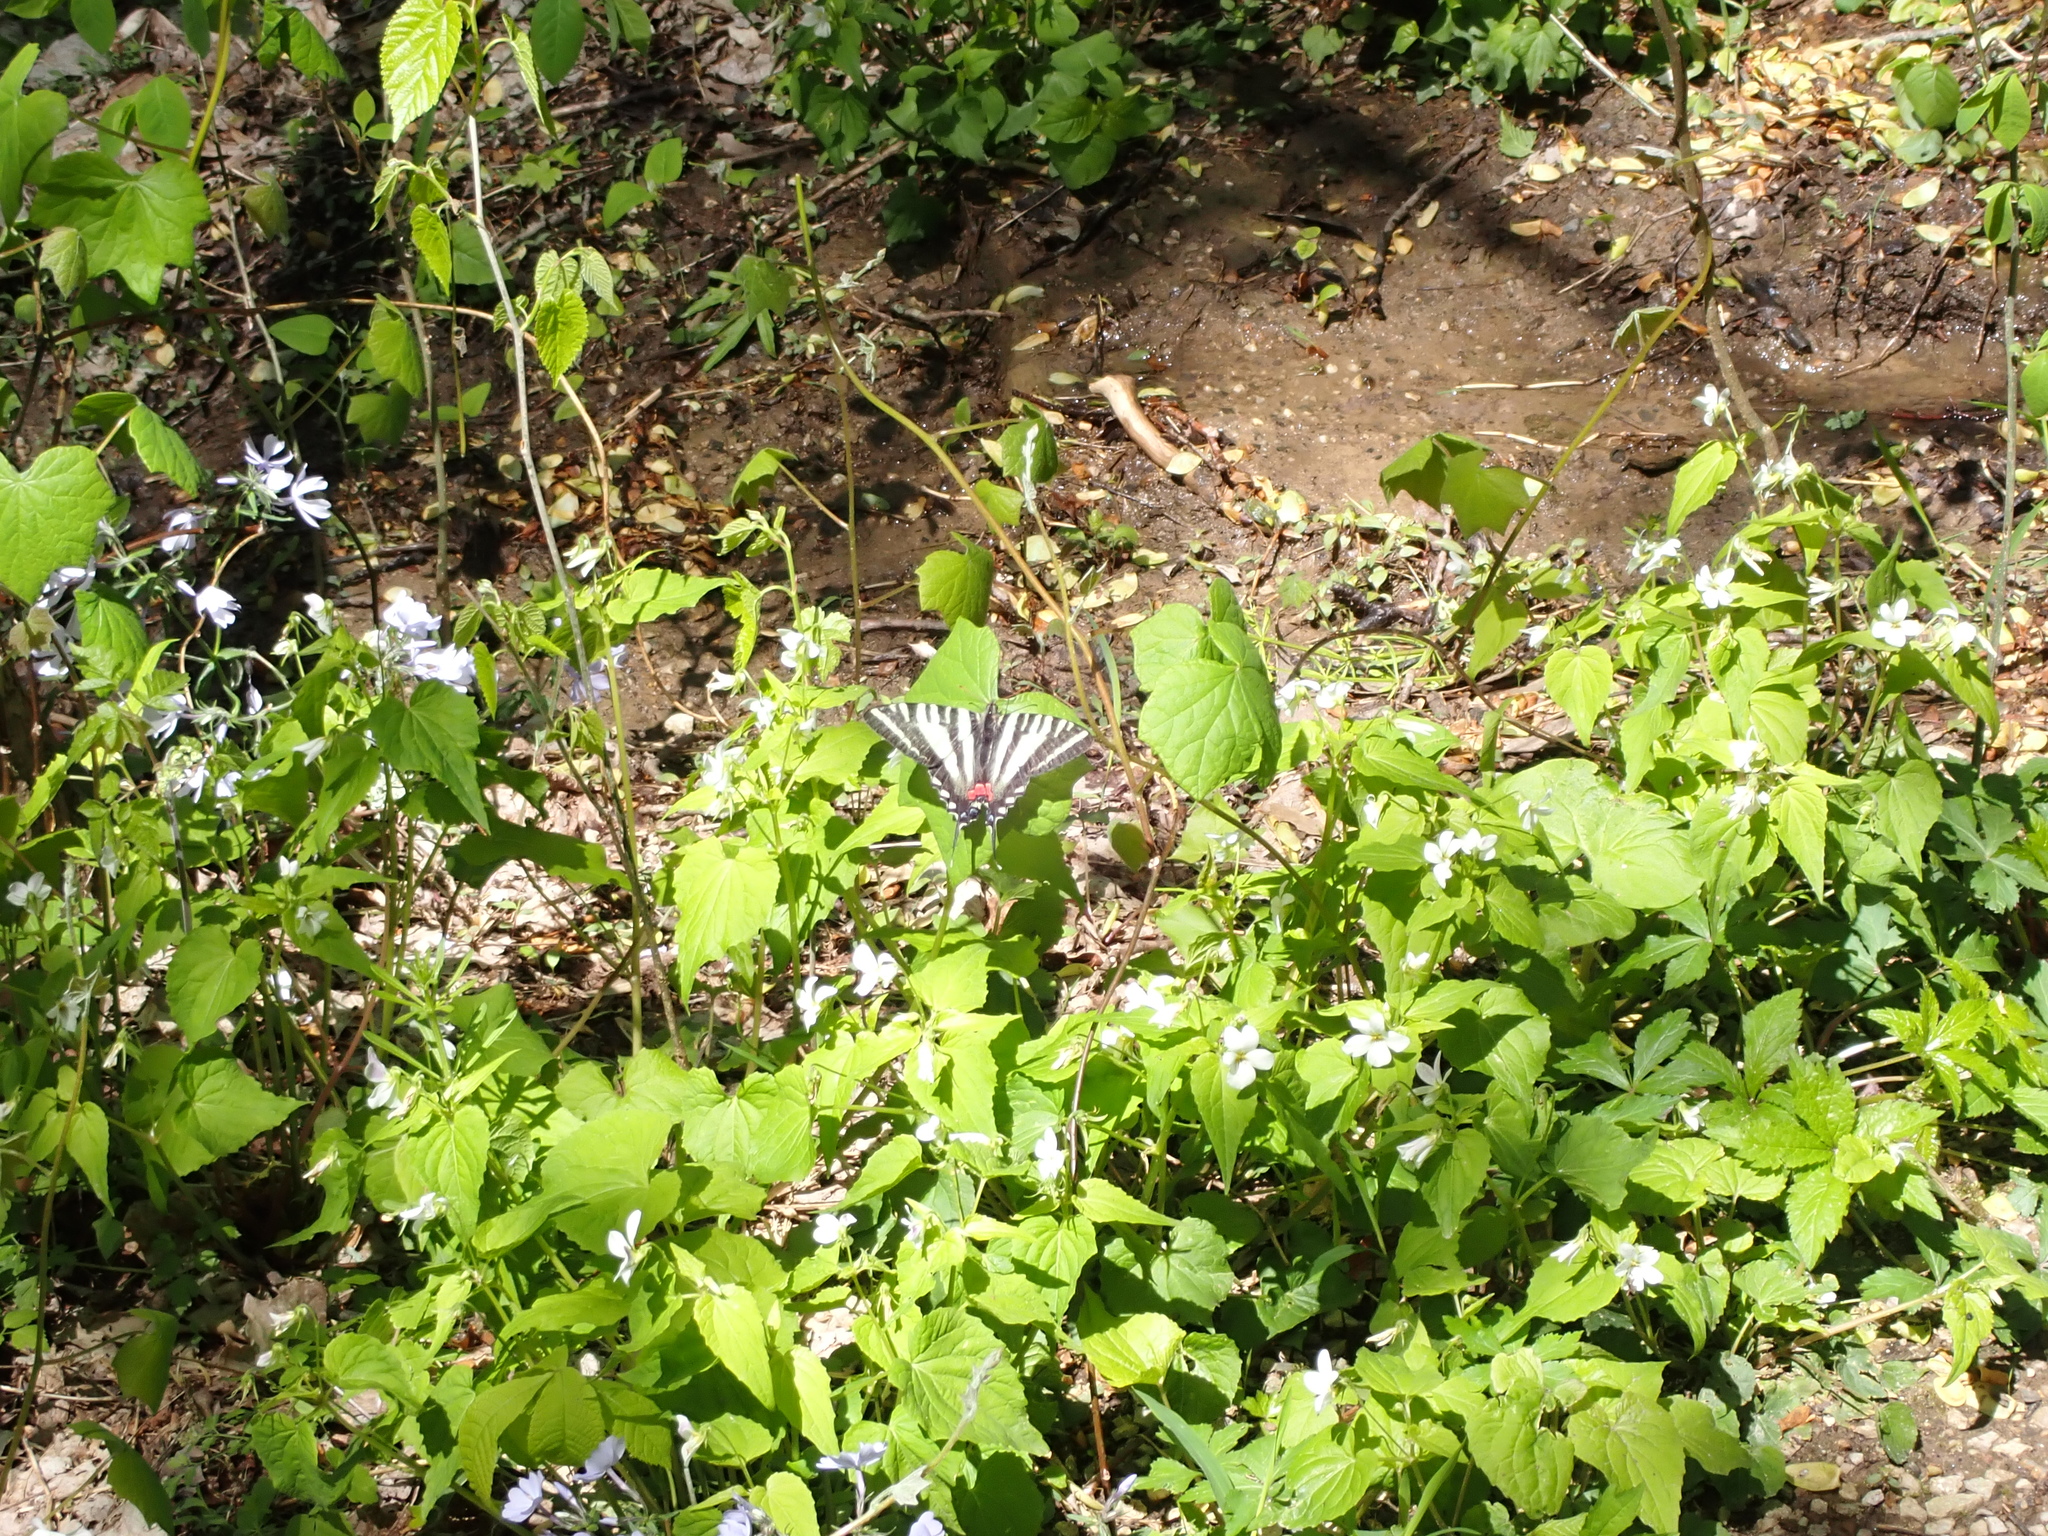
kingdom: Animalia
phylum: Arthropoda
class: Insecta
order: Lepidoptera
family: Papilionidae
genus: Protographium
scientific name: Protographium marcellus
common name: Zebra swallowtail
